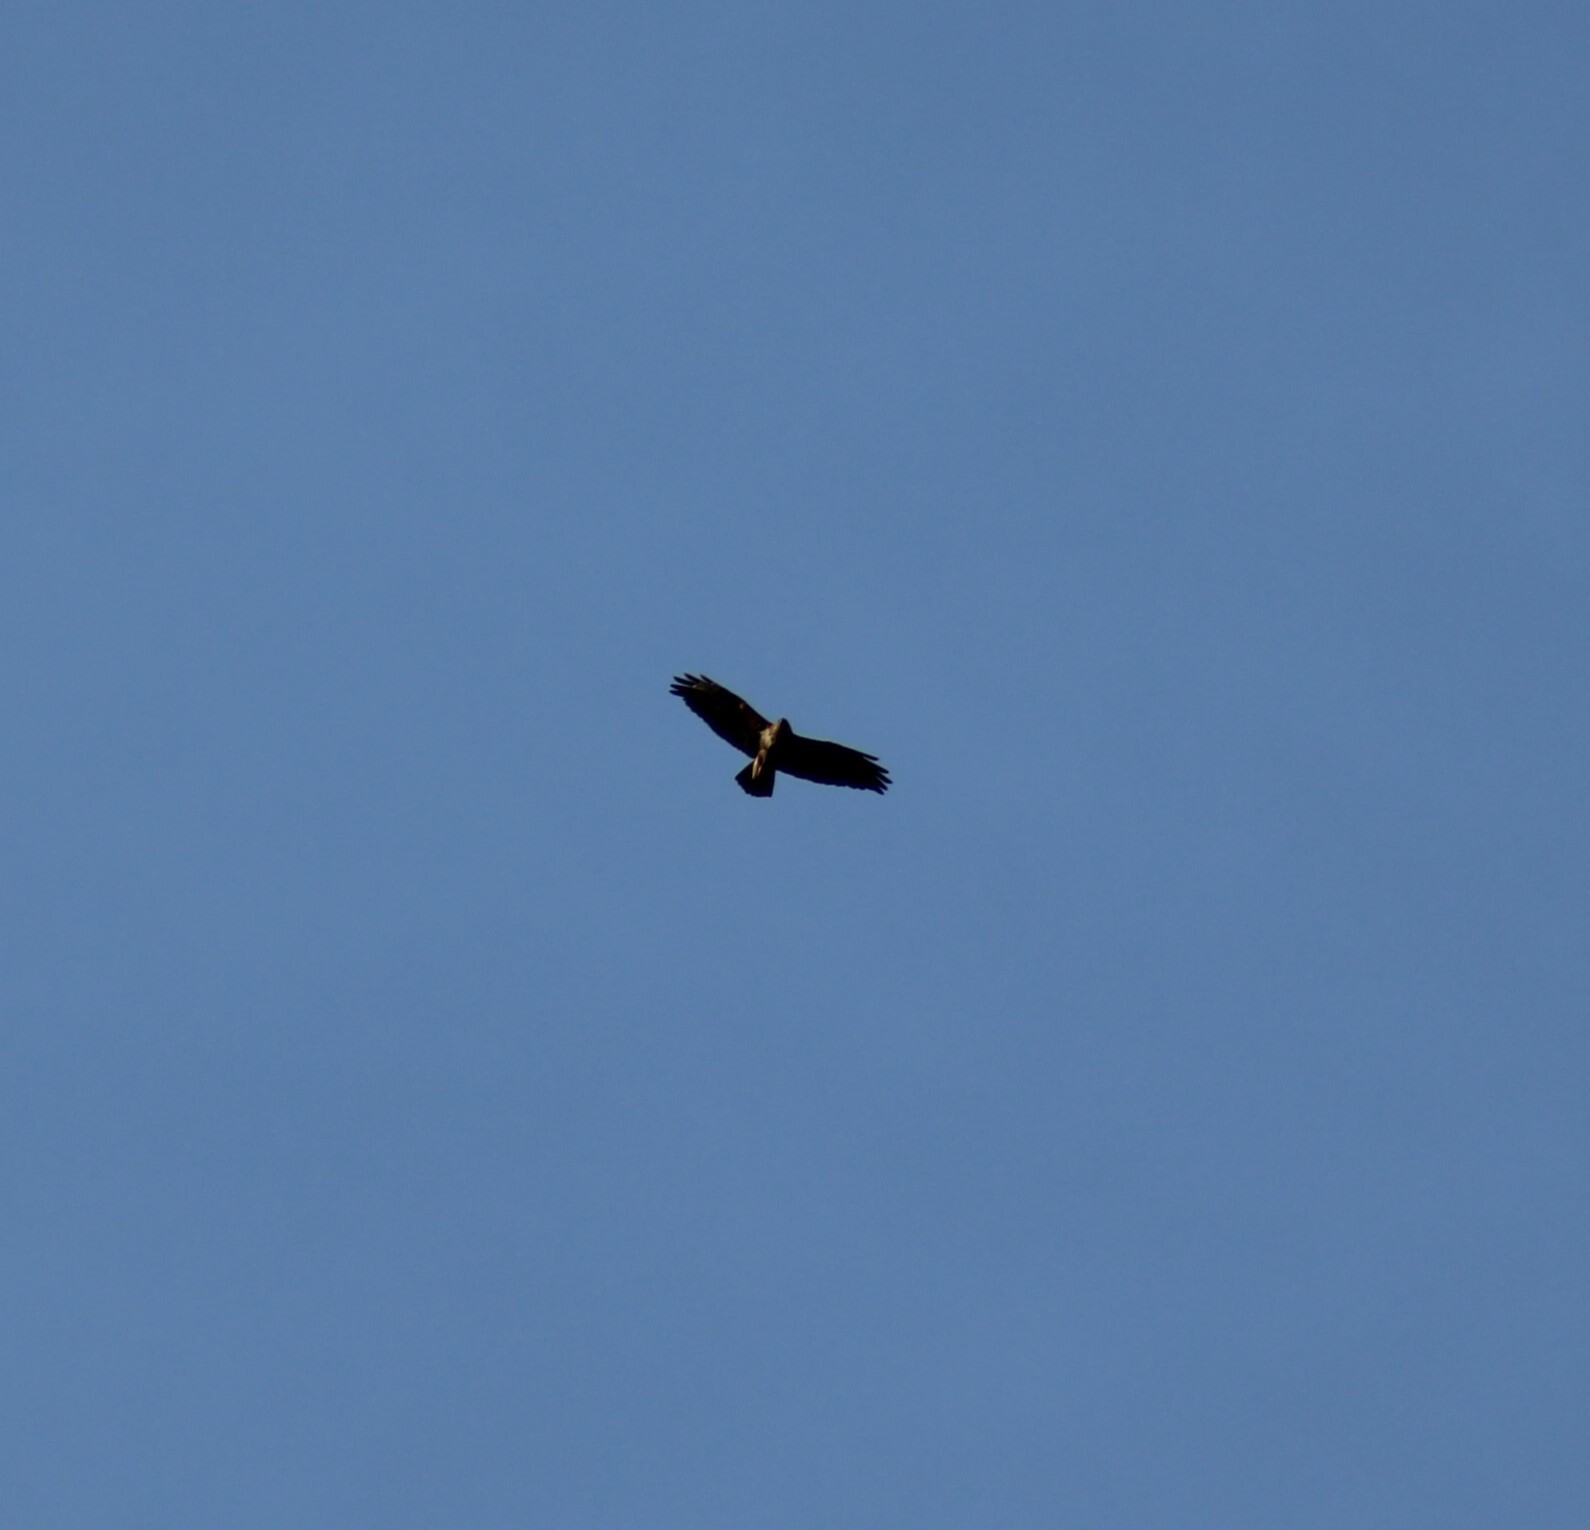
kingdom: Animalia
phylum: Chordata
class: Aves
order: Accipitriformes
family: Accipitridae
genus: Buteo
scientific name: Buteo buteo
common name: Common buzzard
